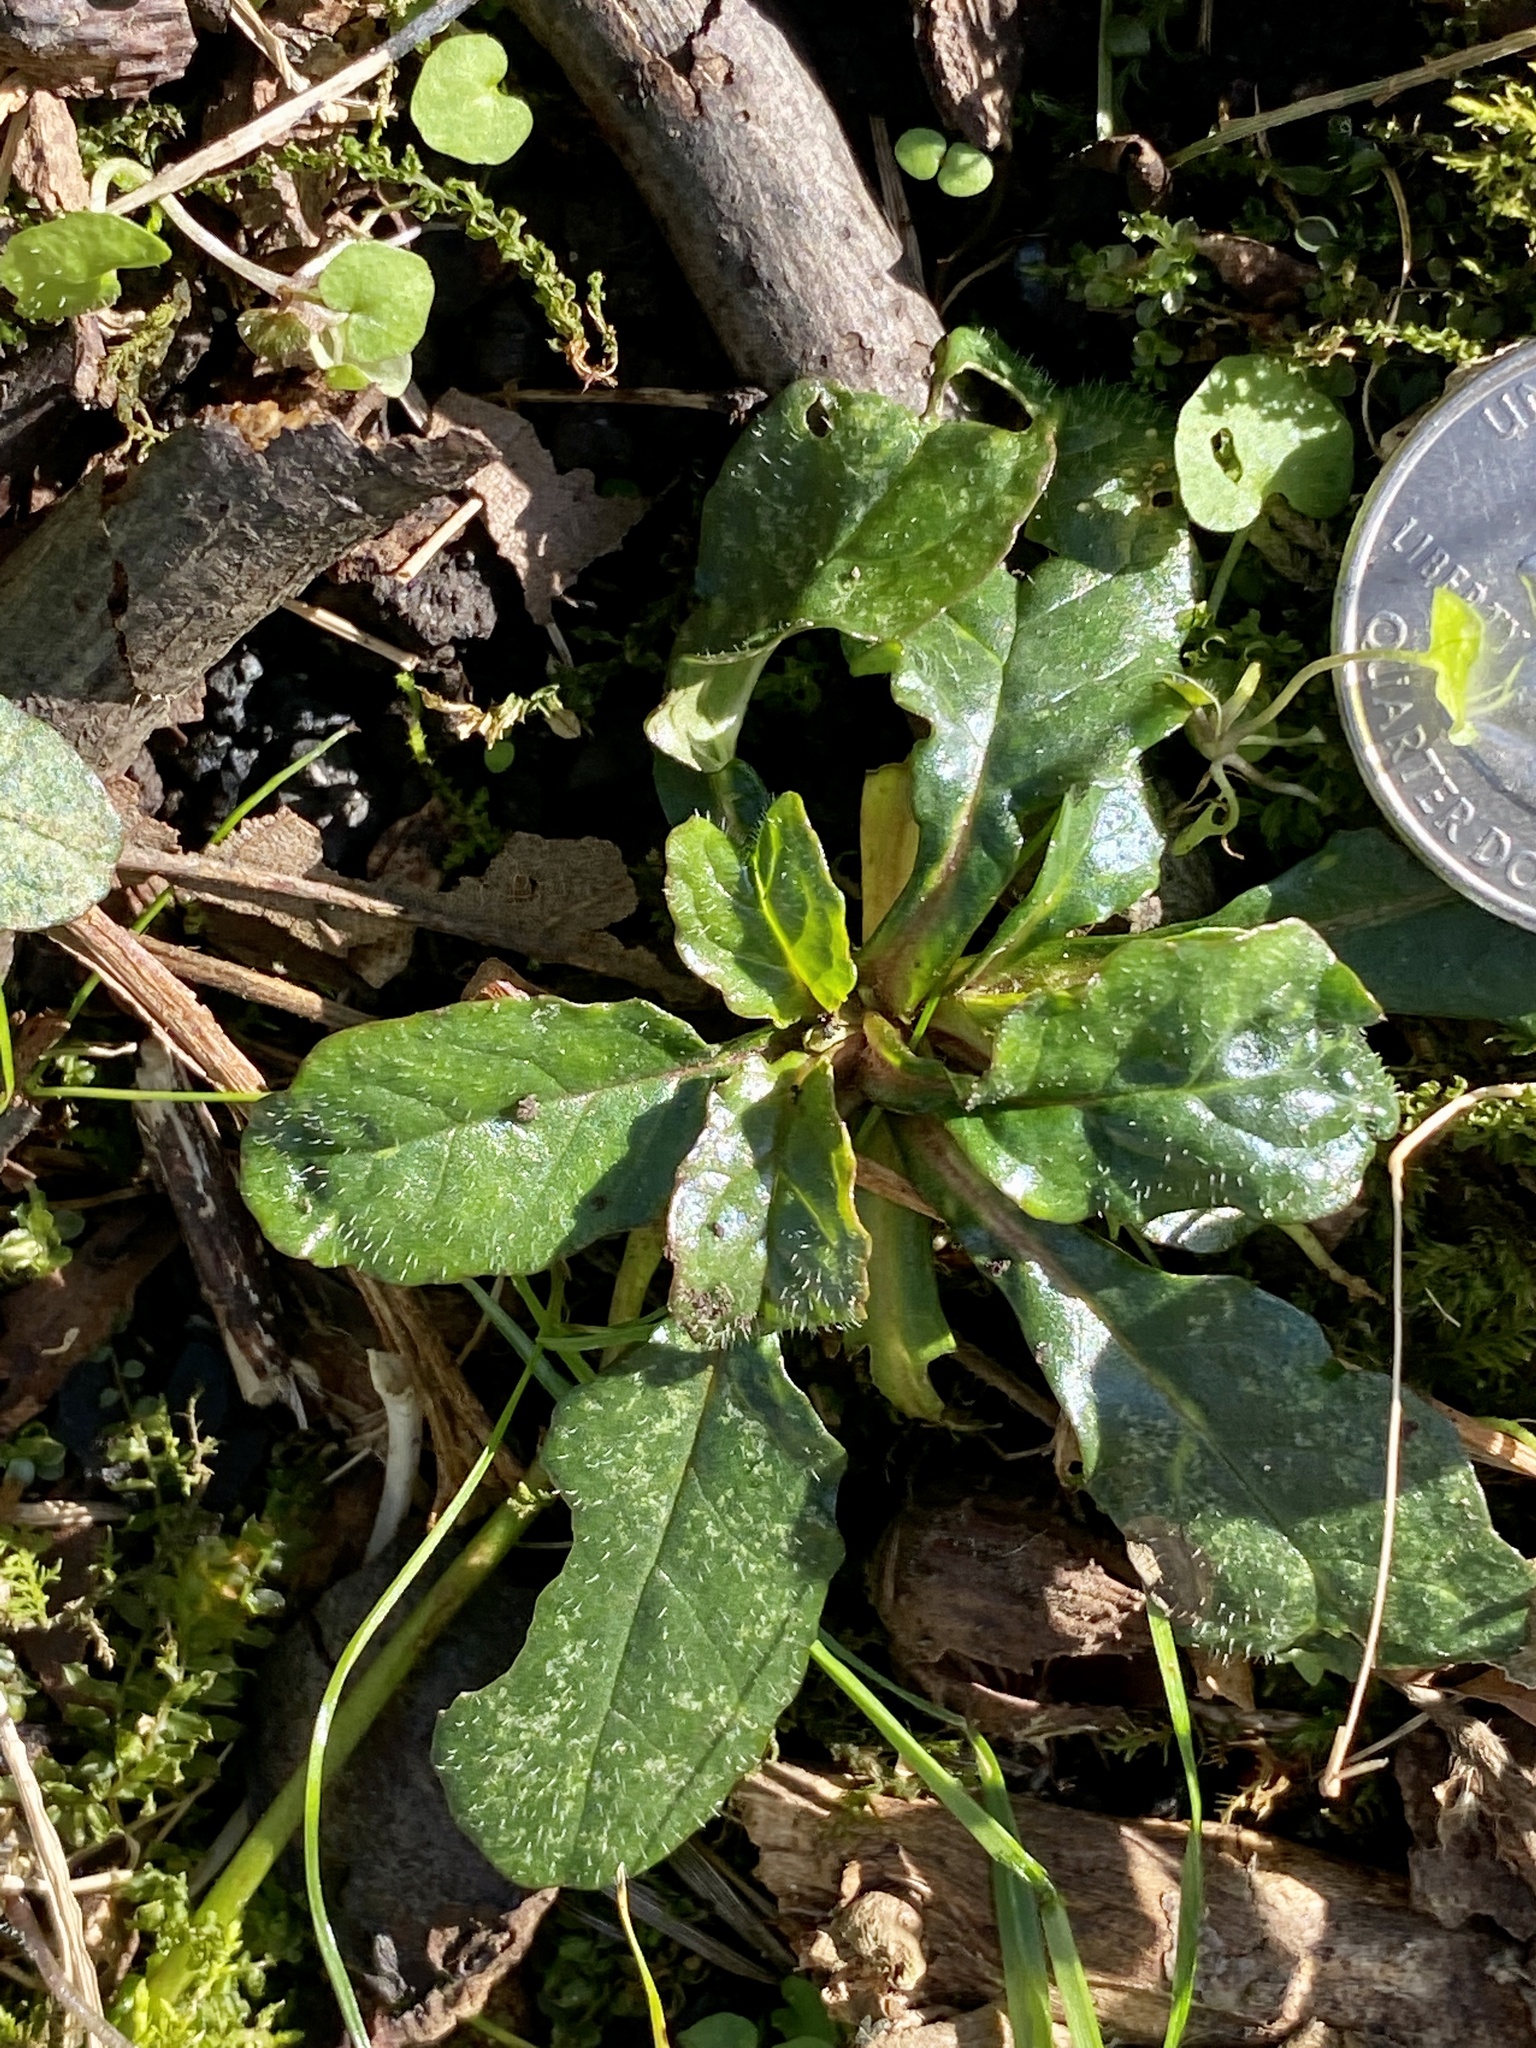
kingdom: Plantae
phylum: Tracheophyta
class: Magnoliopsida
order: Lamiales
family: Lamiaceae
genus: Ajuga
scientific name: Ajuga reptans
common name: Bugle
